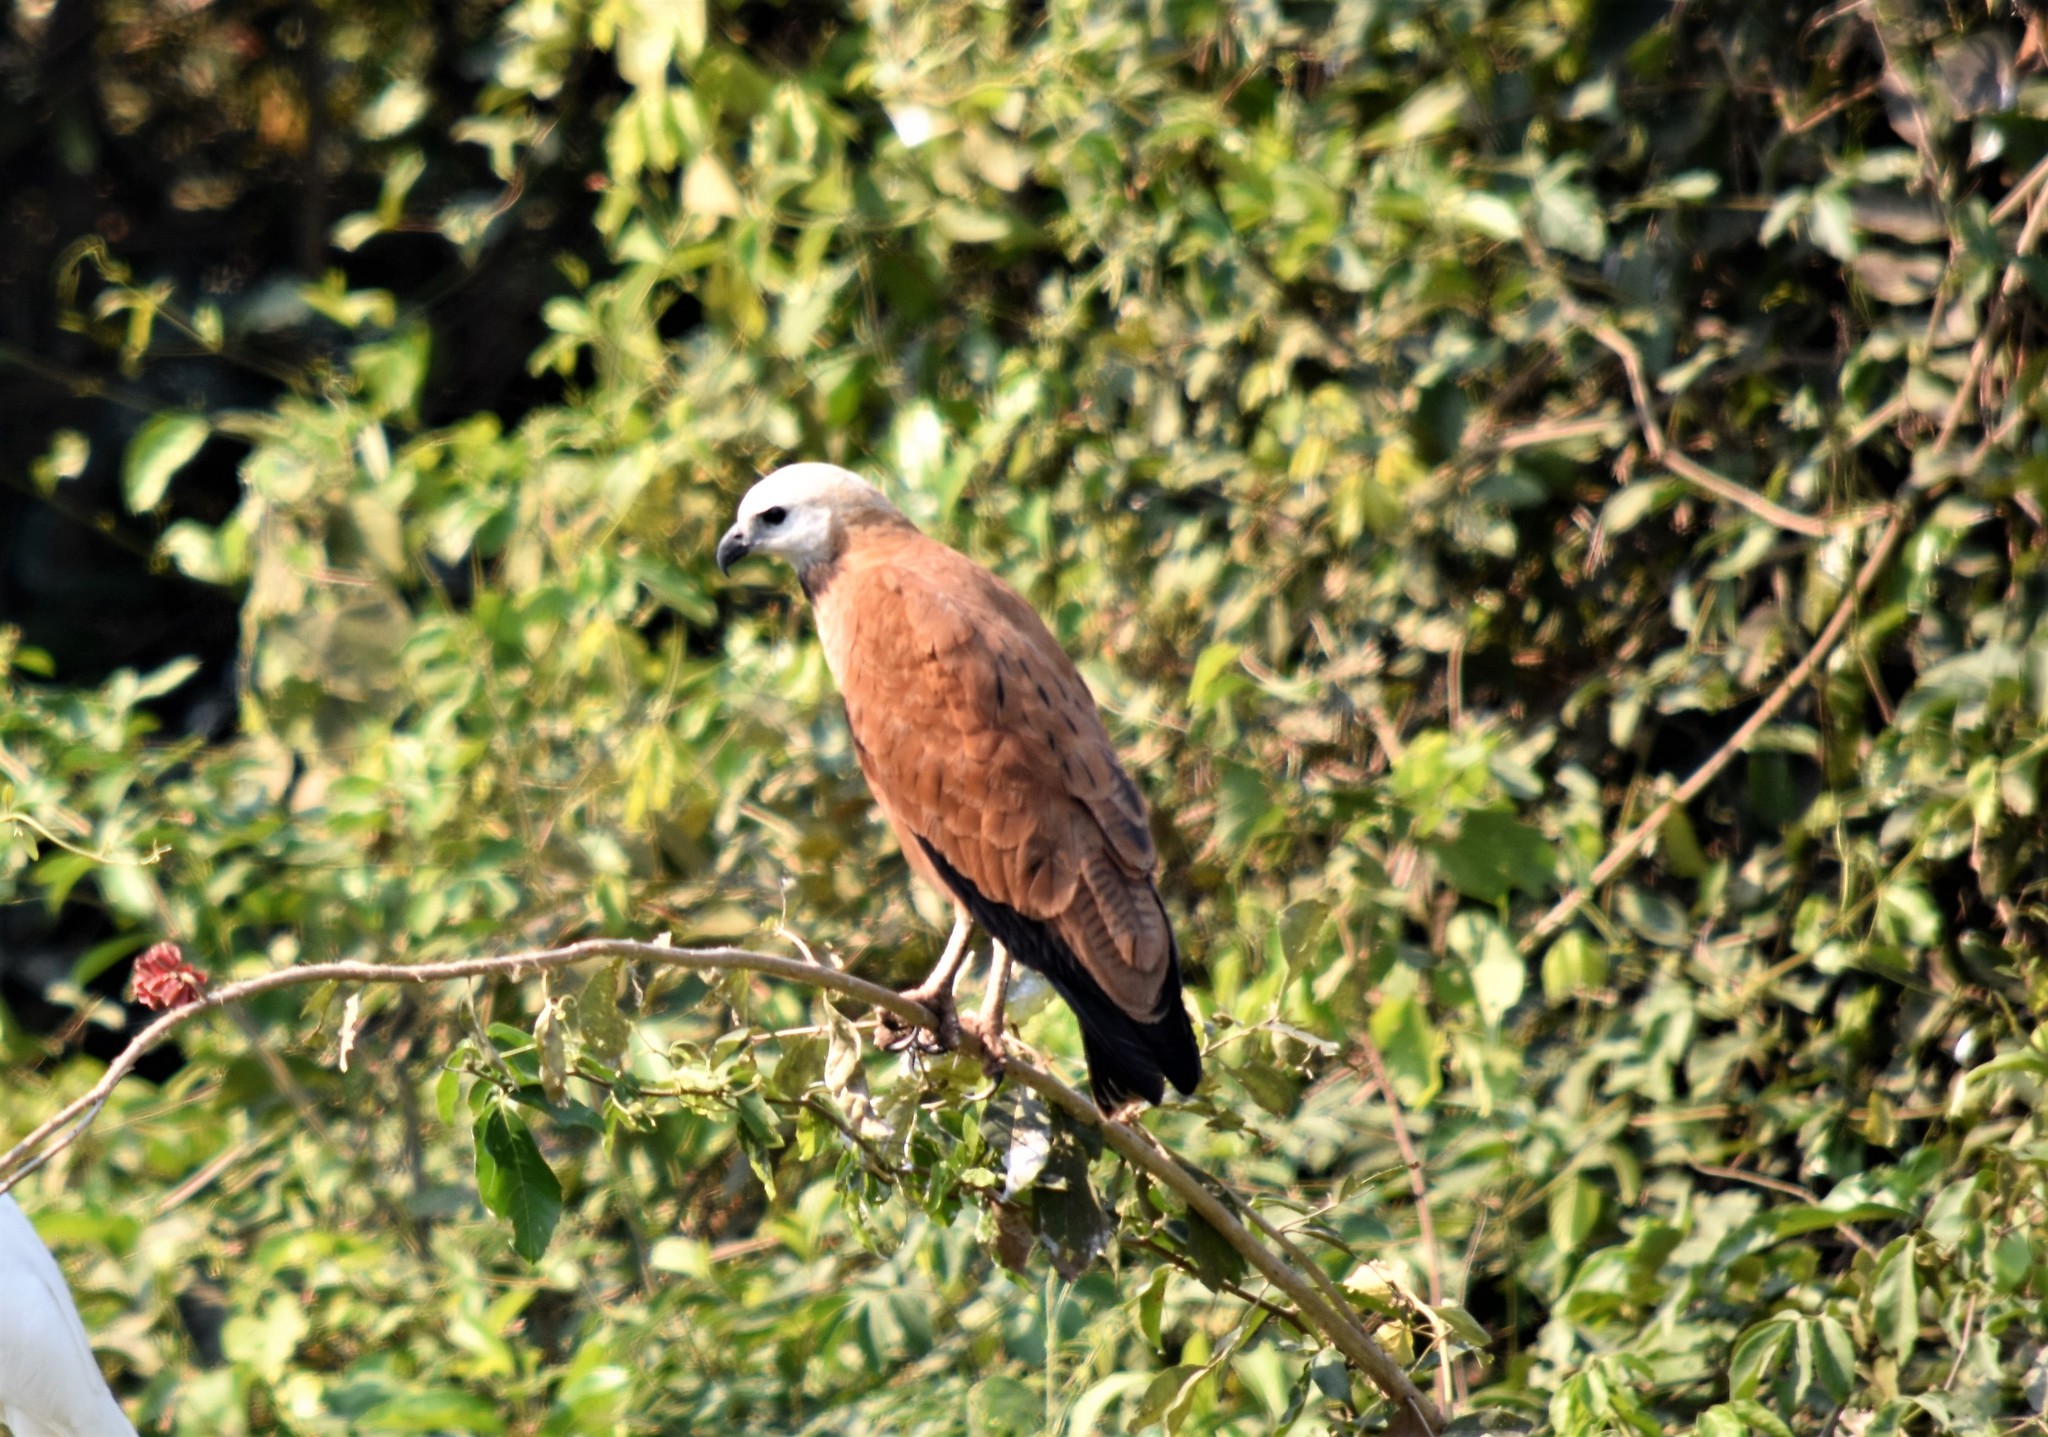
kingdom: Animalia
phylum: Chordata
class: Aves
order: Accipitriformes
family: Accipitridae
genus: Busarellus
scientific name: Busarellus nigricollis
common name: Black-collared hawk
